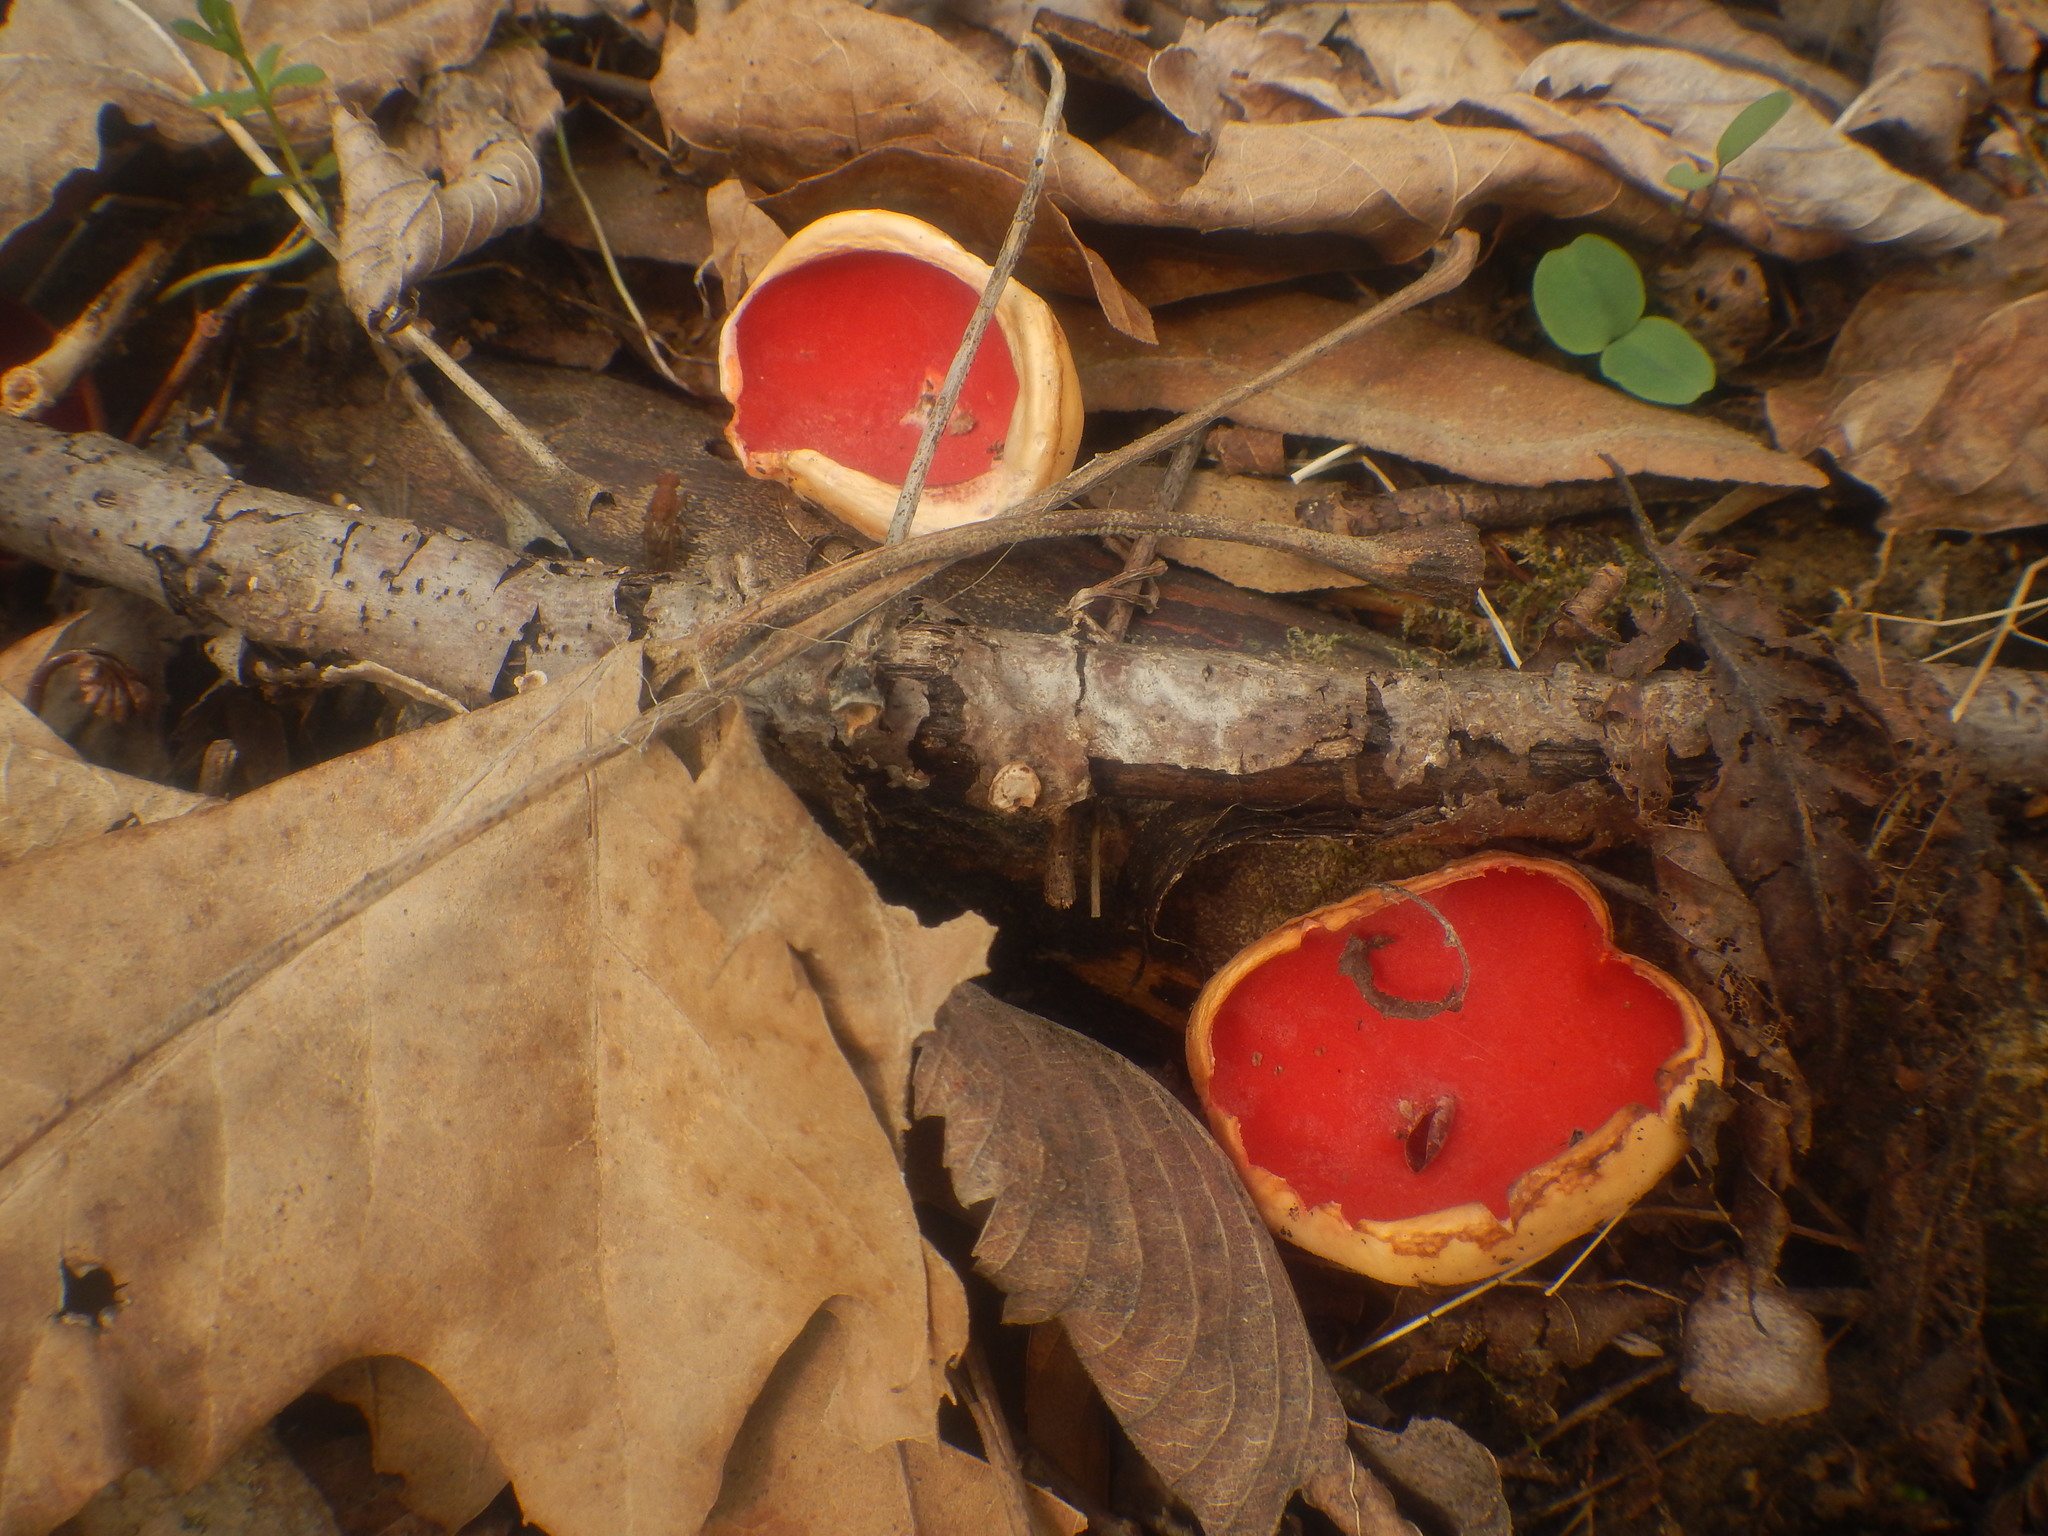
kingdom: Fungi
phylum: Ascomycota
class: Pezizomycetes
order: Pezizales
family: Sarcoscyphaceae
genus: Sarcoscypha
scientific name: Sarcoscypha
